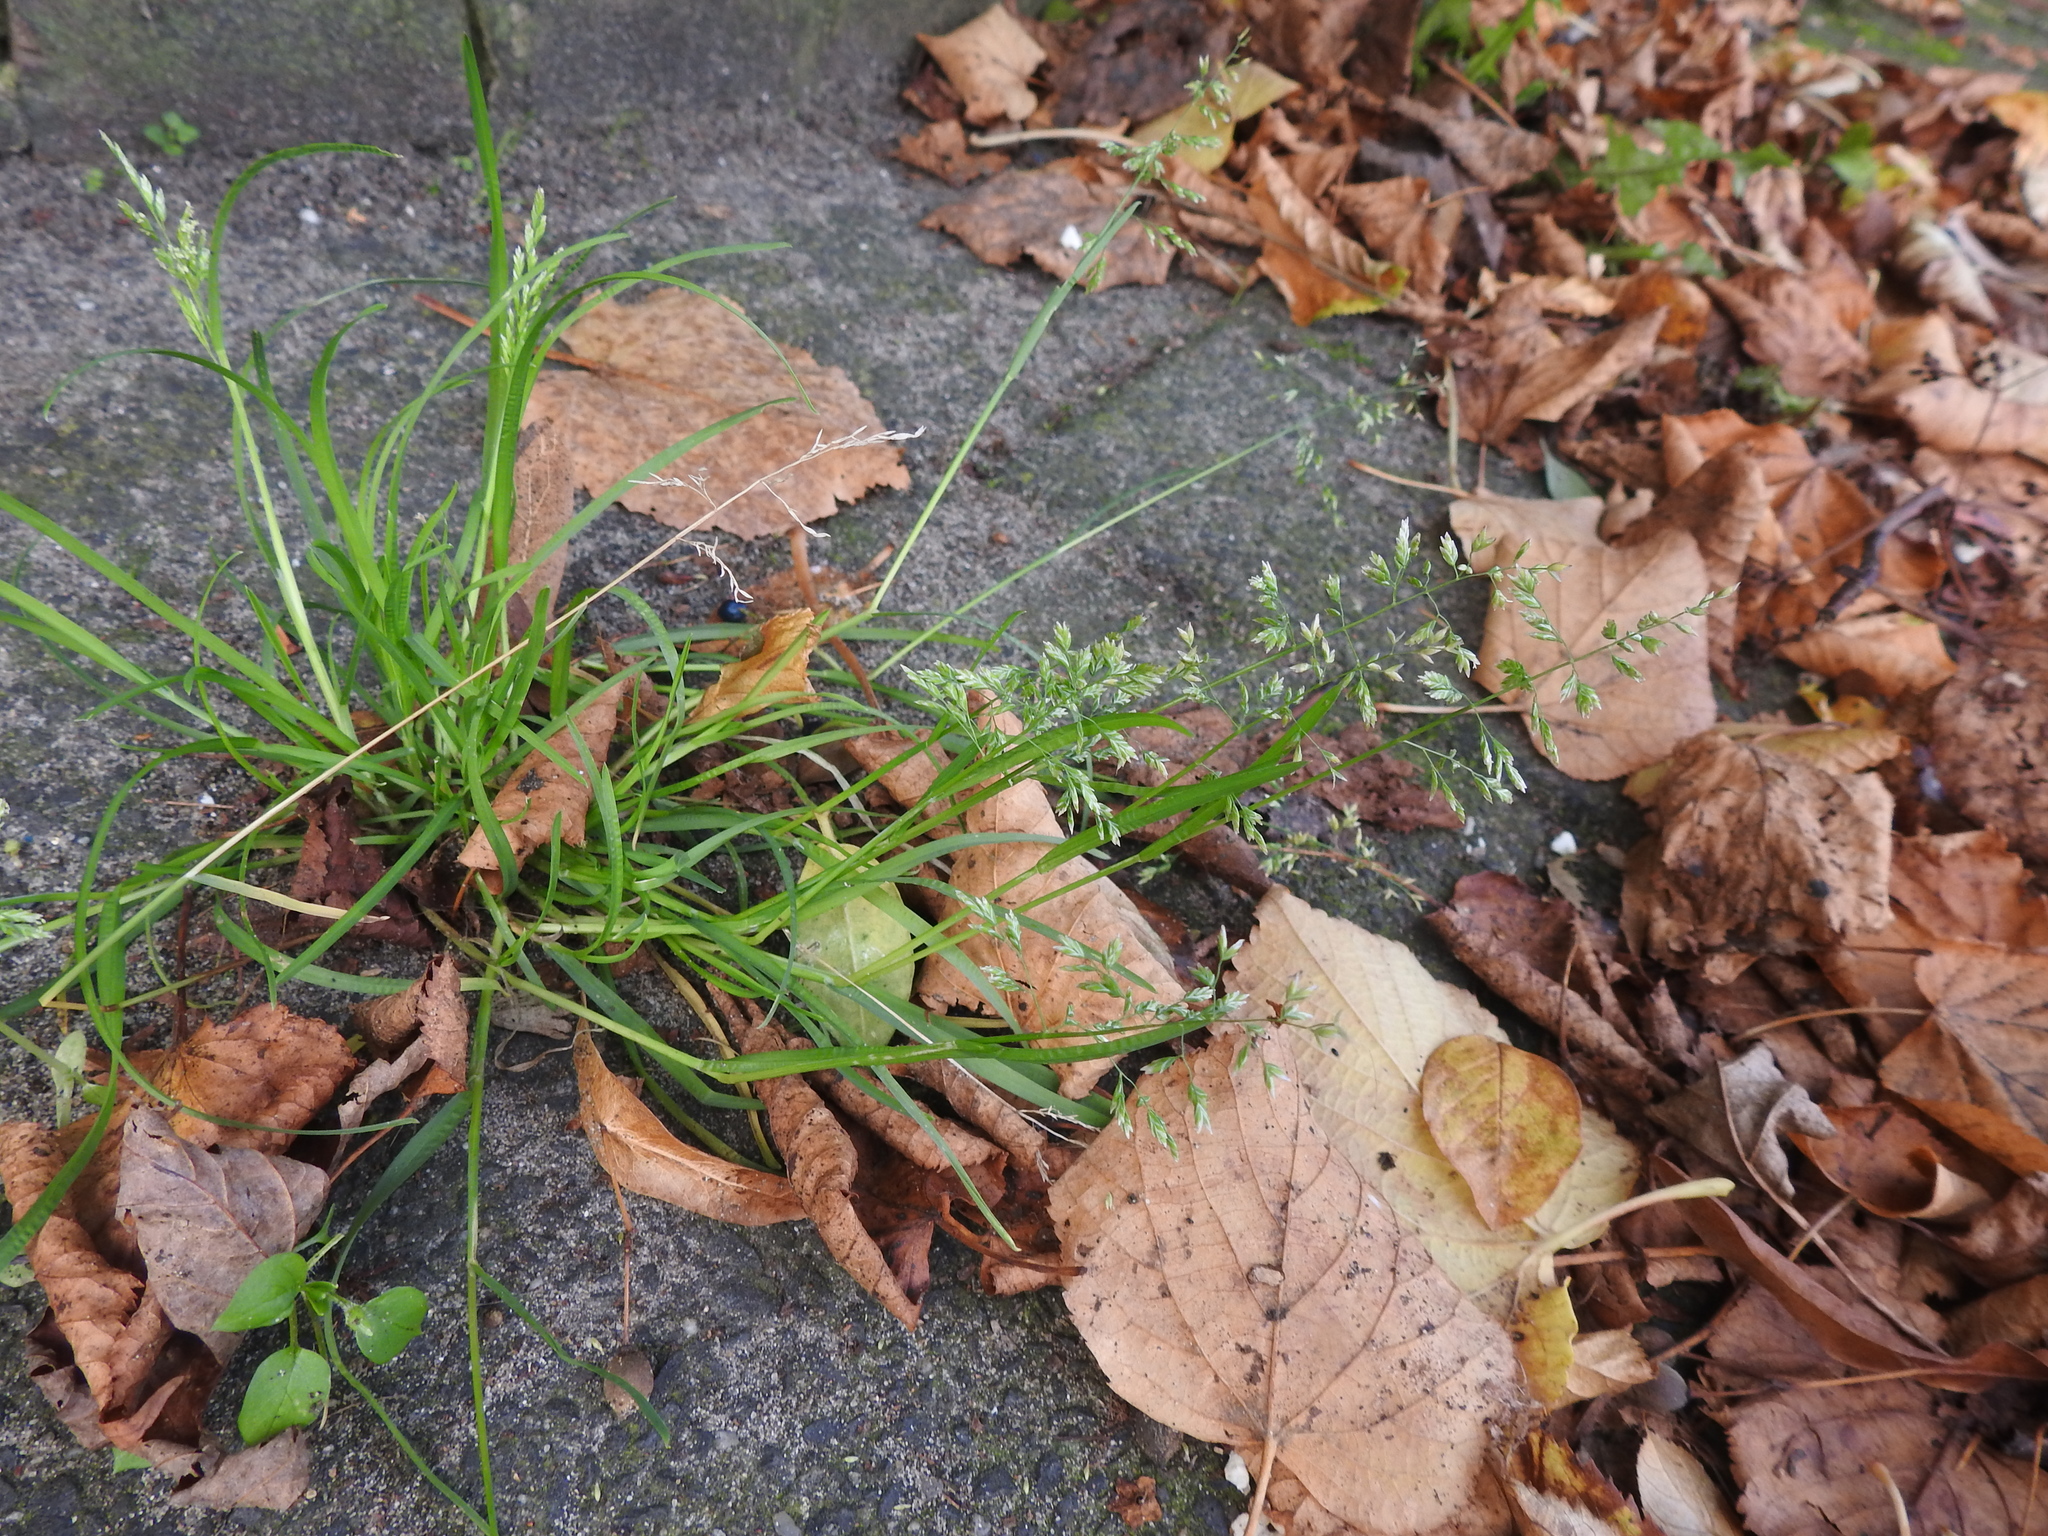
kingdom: Plantae
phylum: Tracheophyta
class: Liliopsida
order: Poales
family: Poaceae
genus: Poa
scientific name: Poa annua
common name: Annual bluegrass
